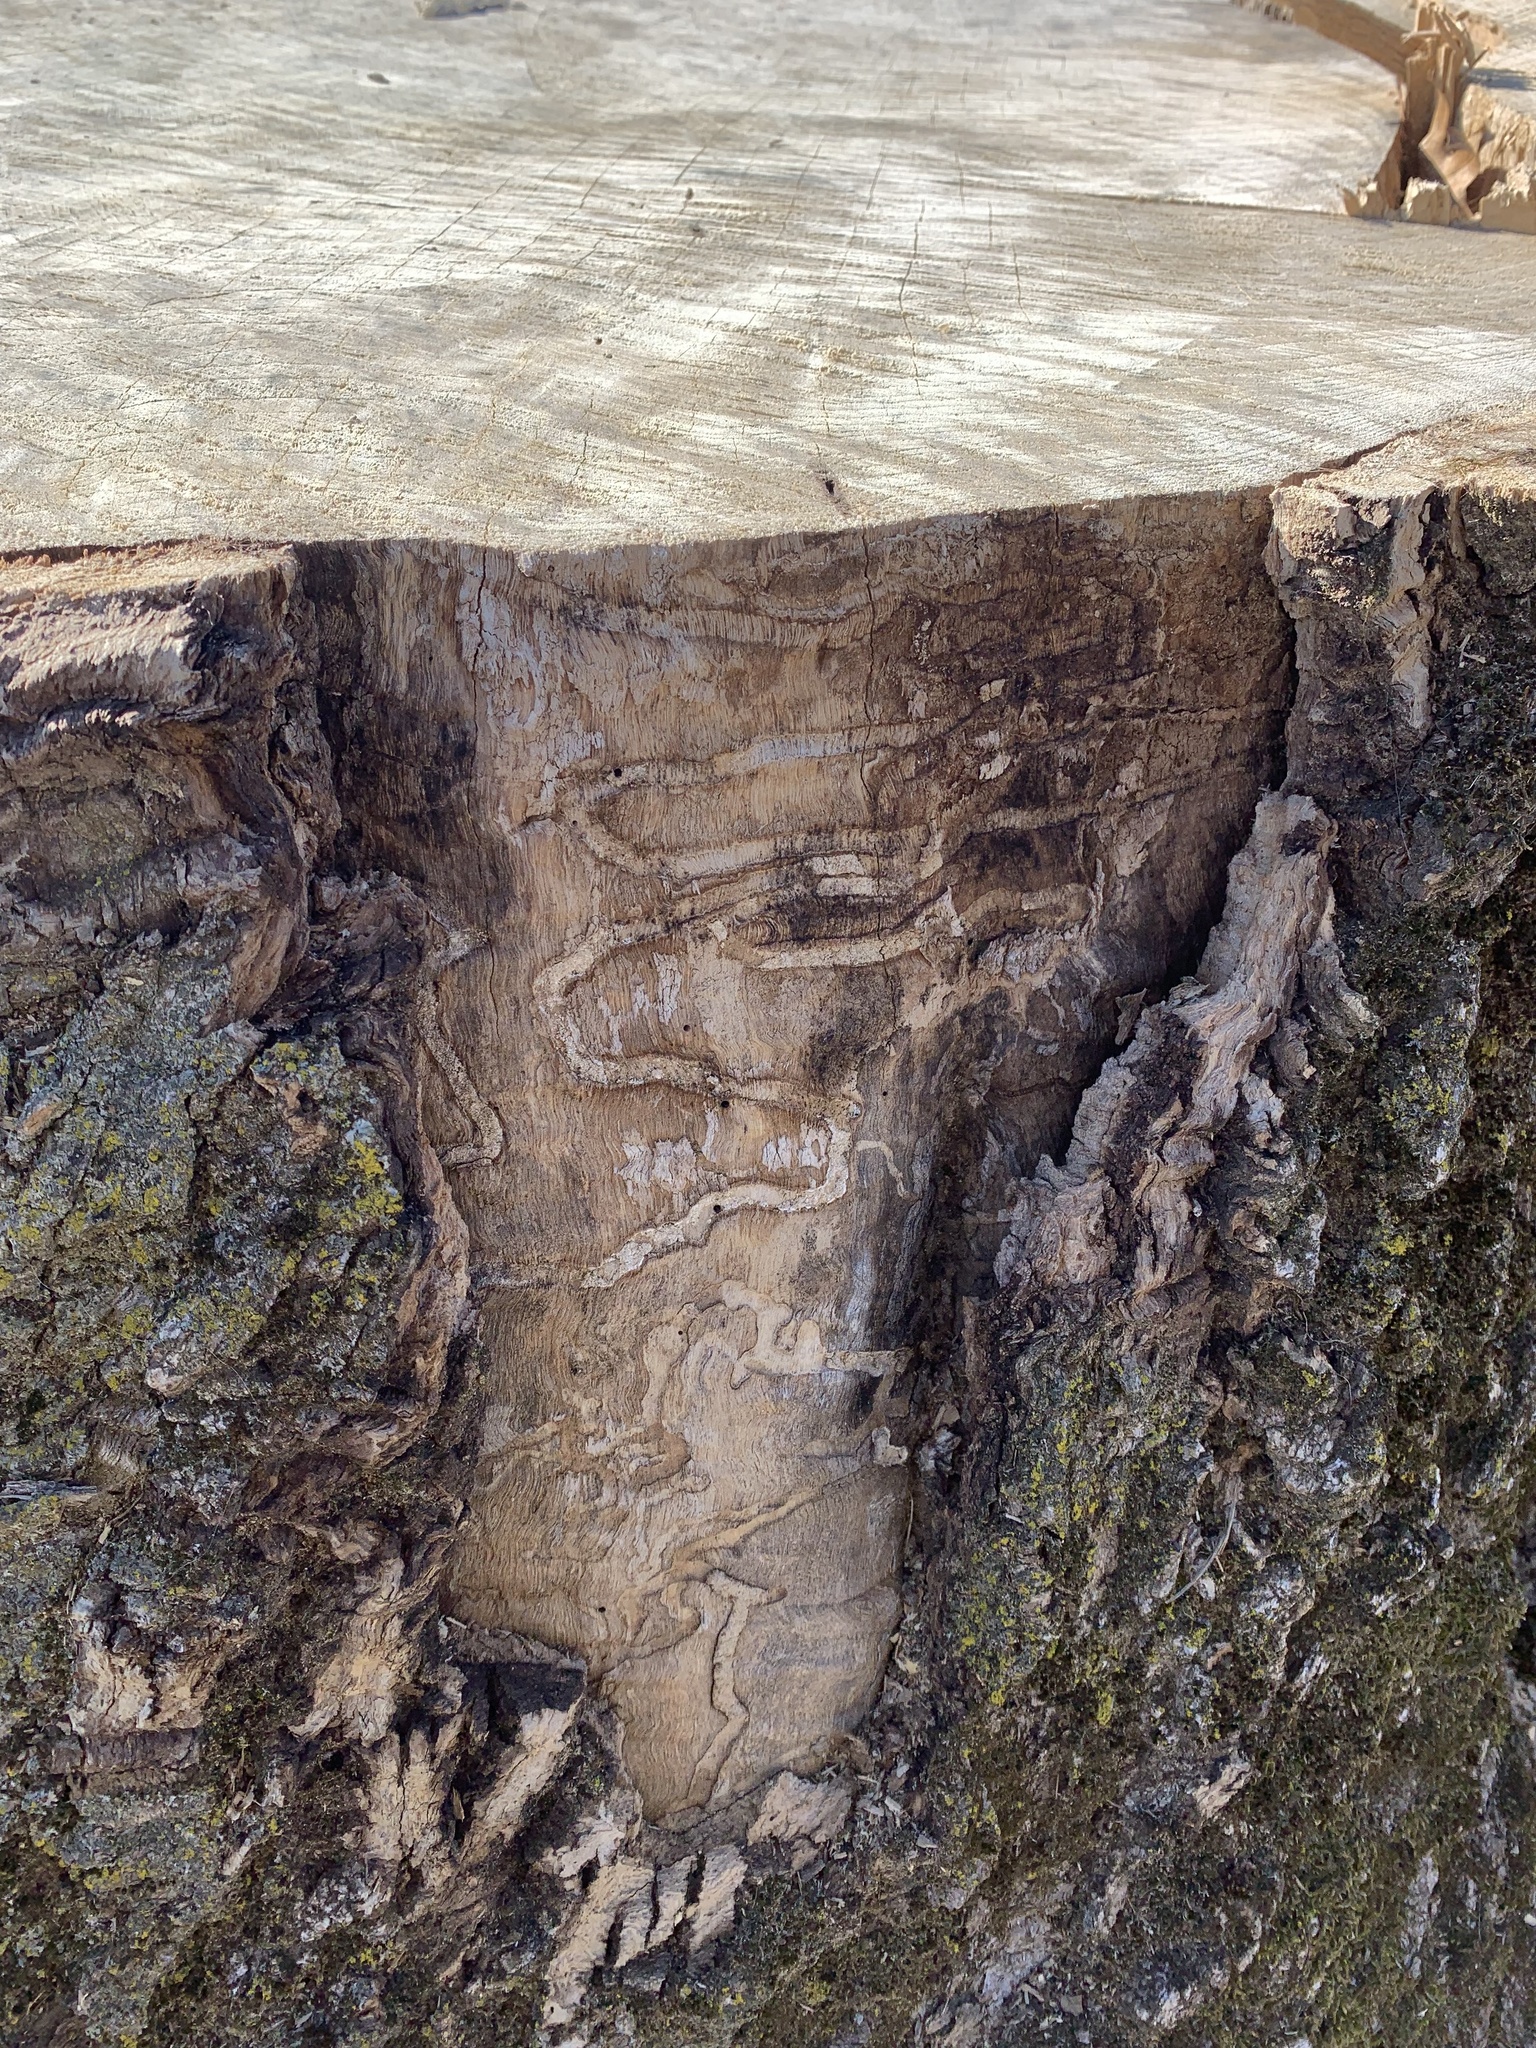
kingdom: Animalia
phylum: Arthropoda
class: Insecta
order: Coleoptera
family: Buprestidae
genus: Agrilus
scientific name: Agrilus planipennis
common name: Emerald ash borer
